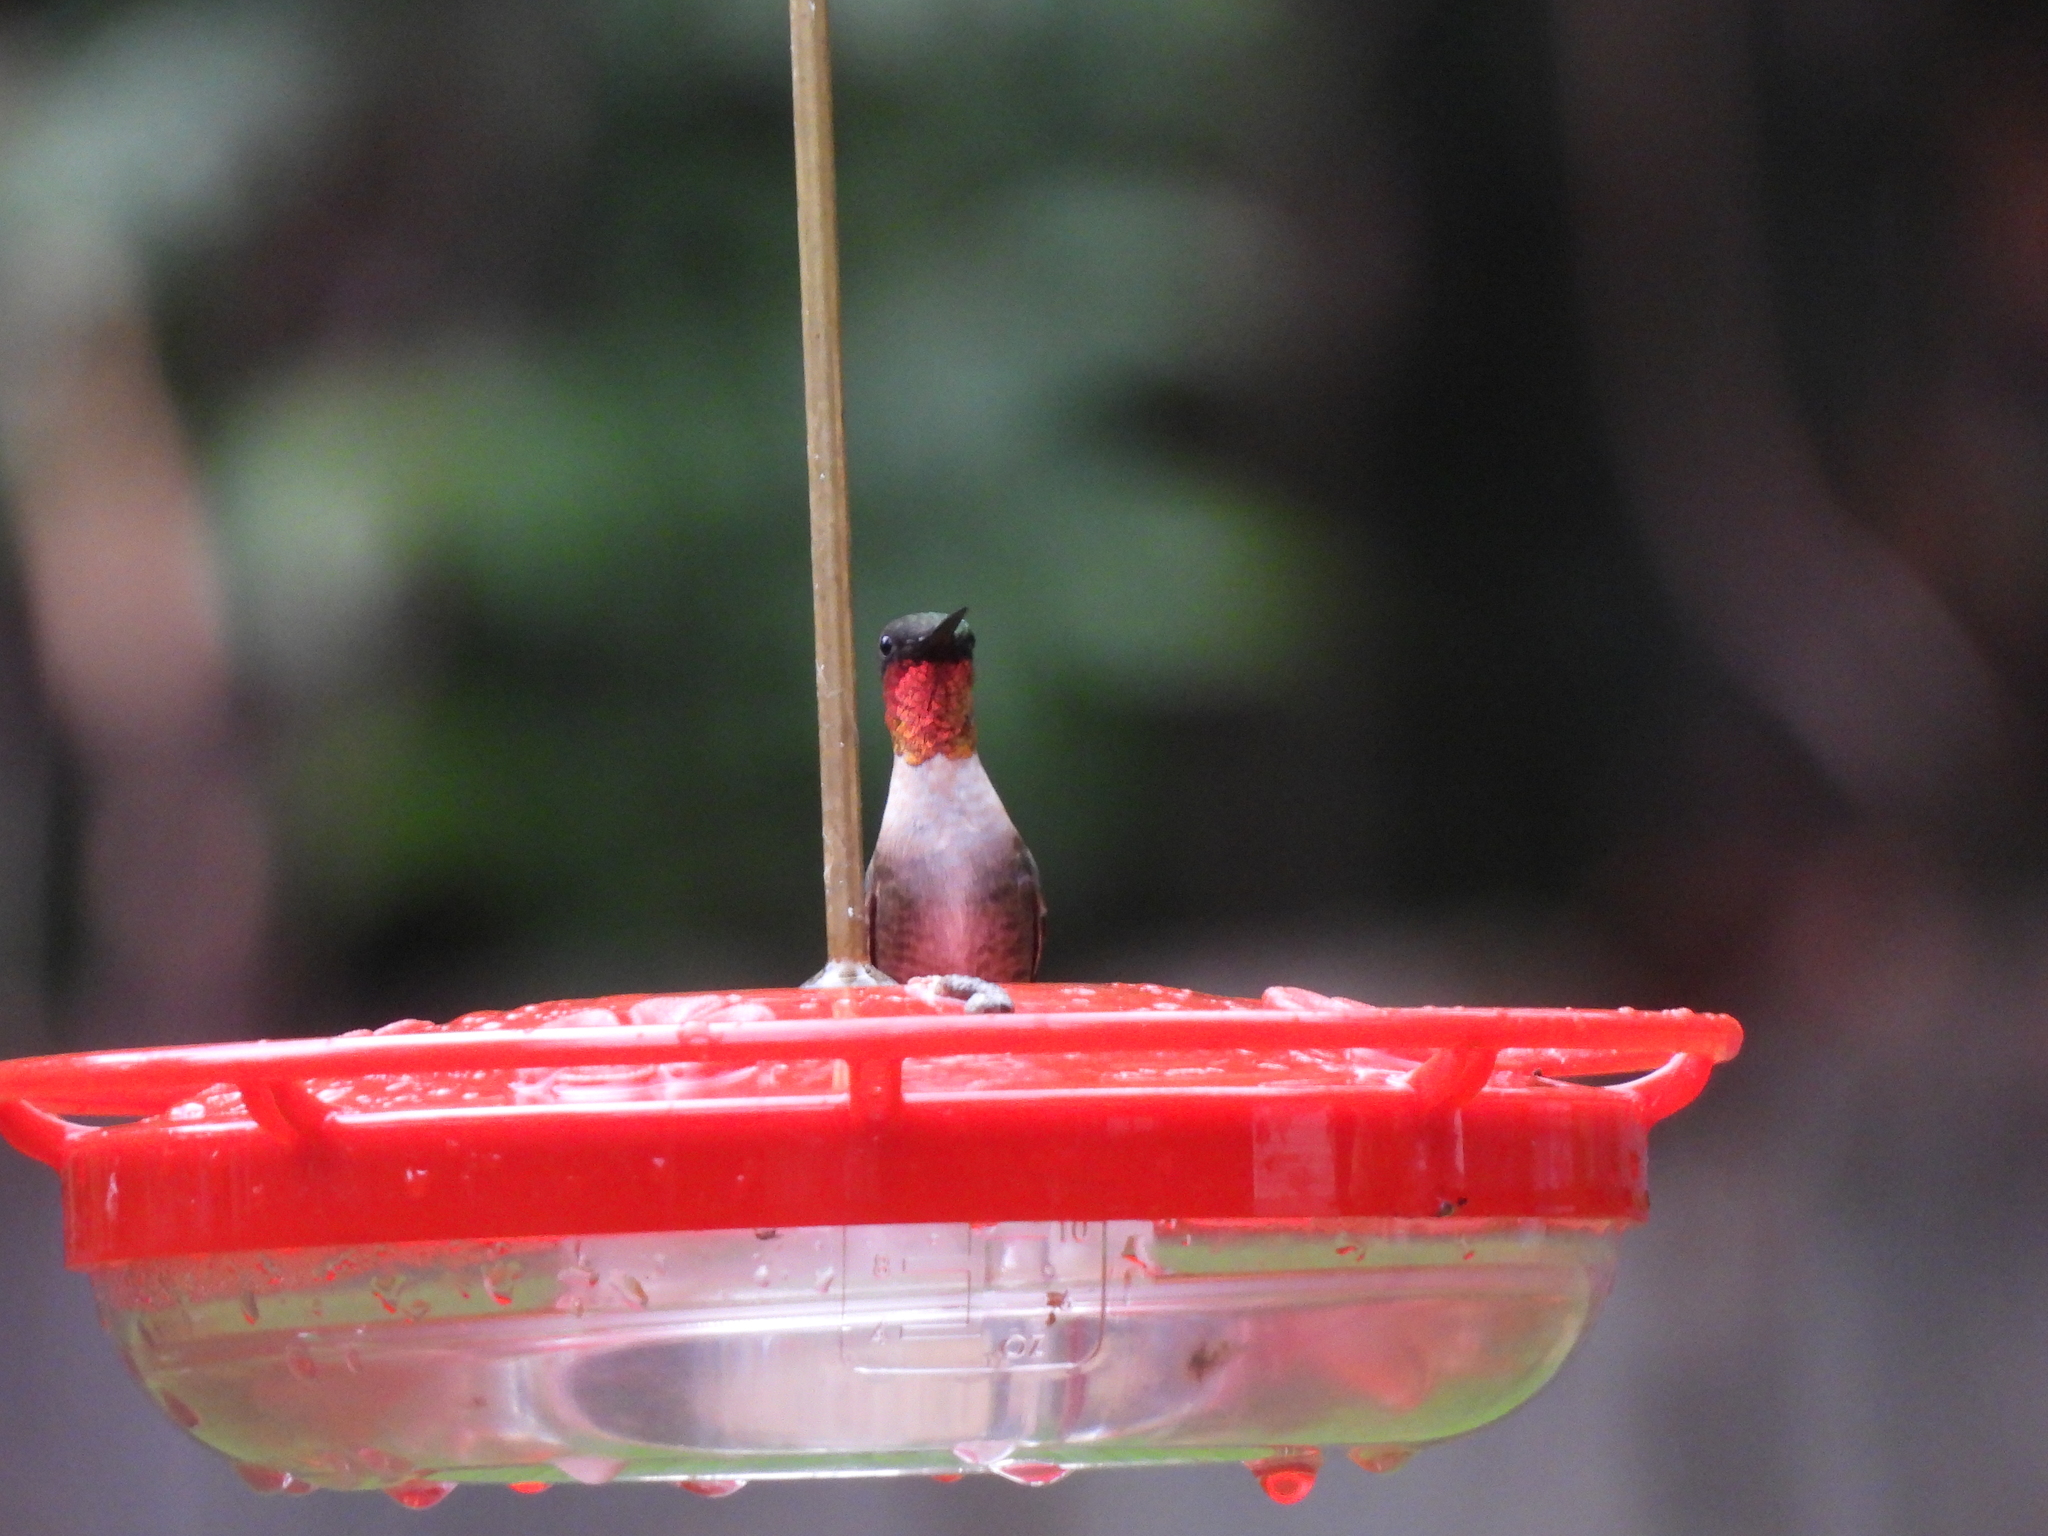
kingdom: Animalia
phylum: Chordata
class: Aves
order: Apodiformes
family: Trochilidae
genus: Archilochus
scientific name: Archilochus colubris
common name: Ruby-throated hummingbird
